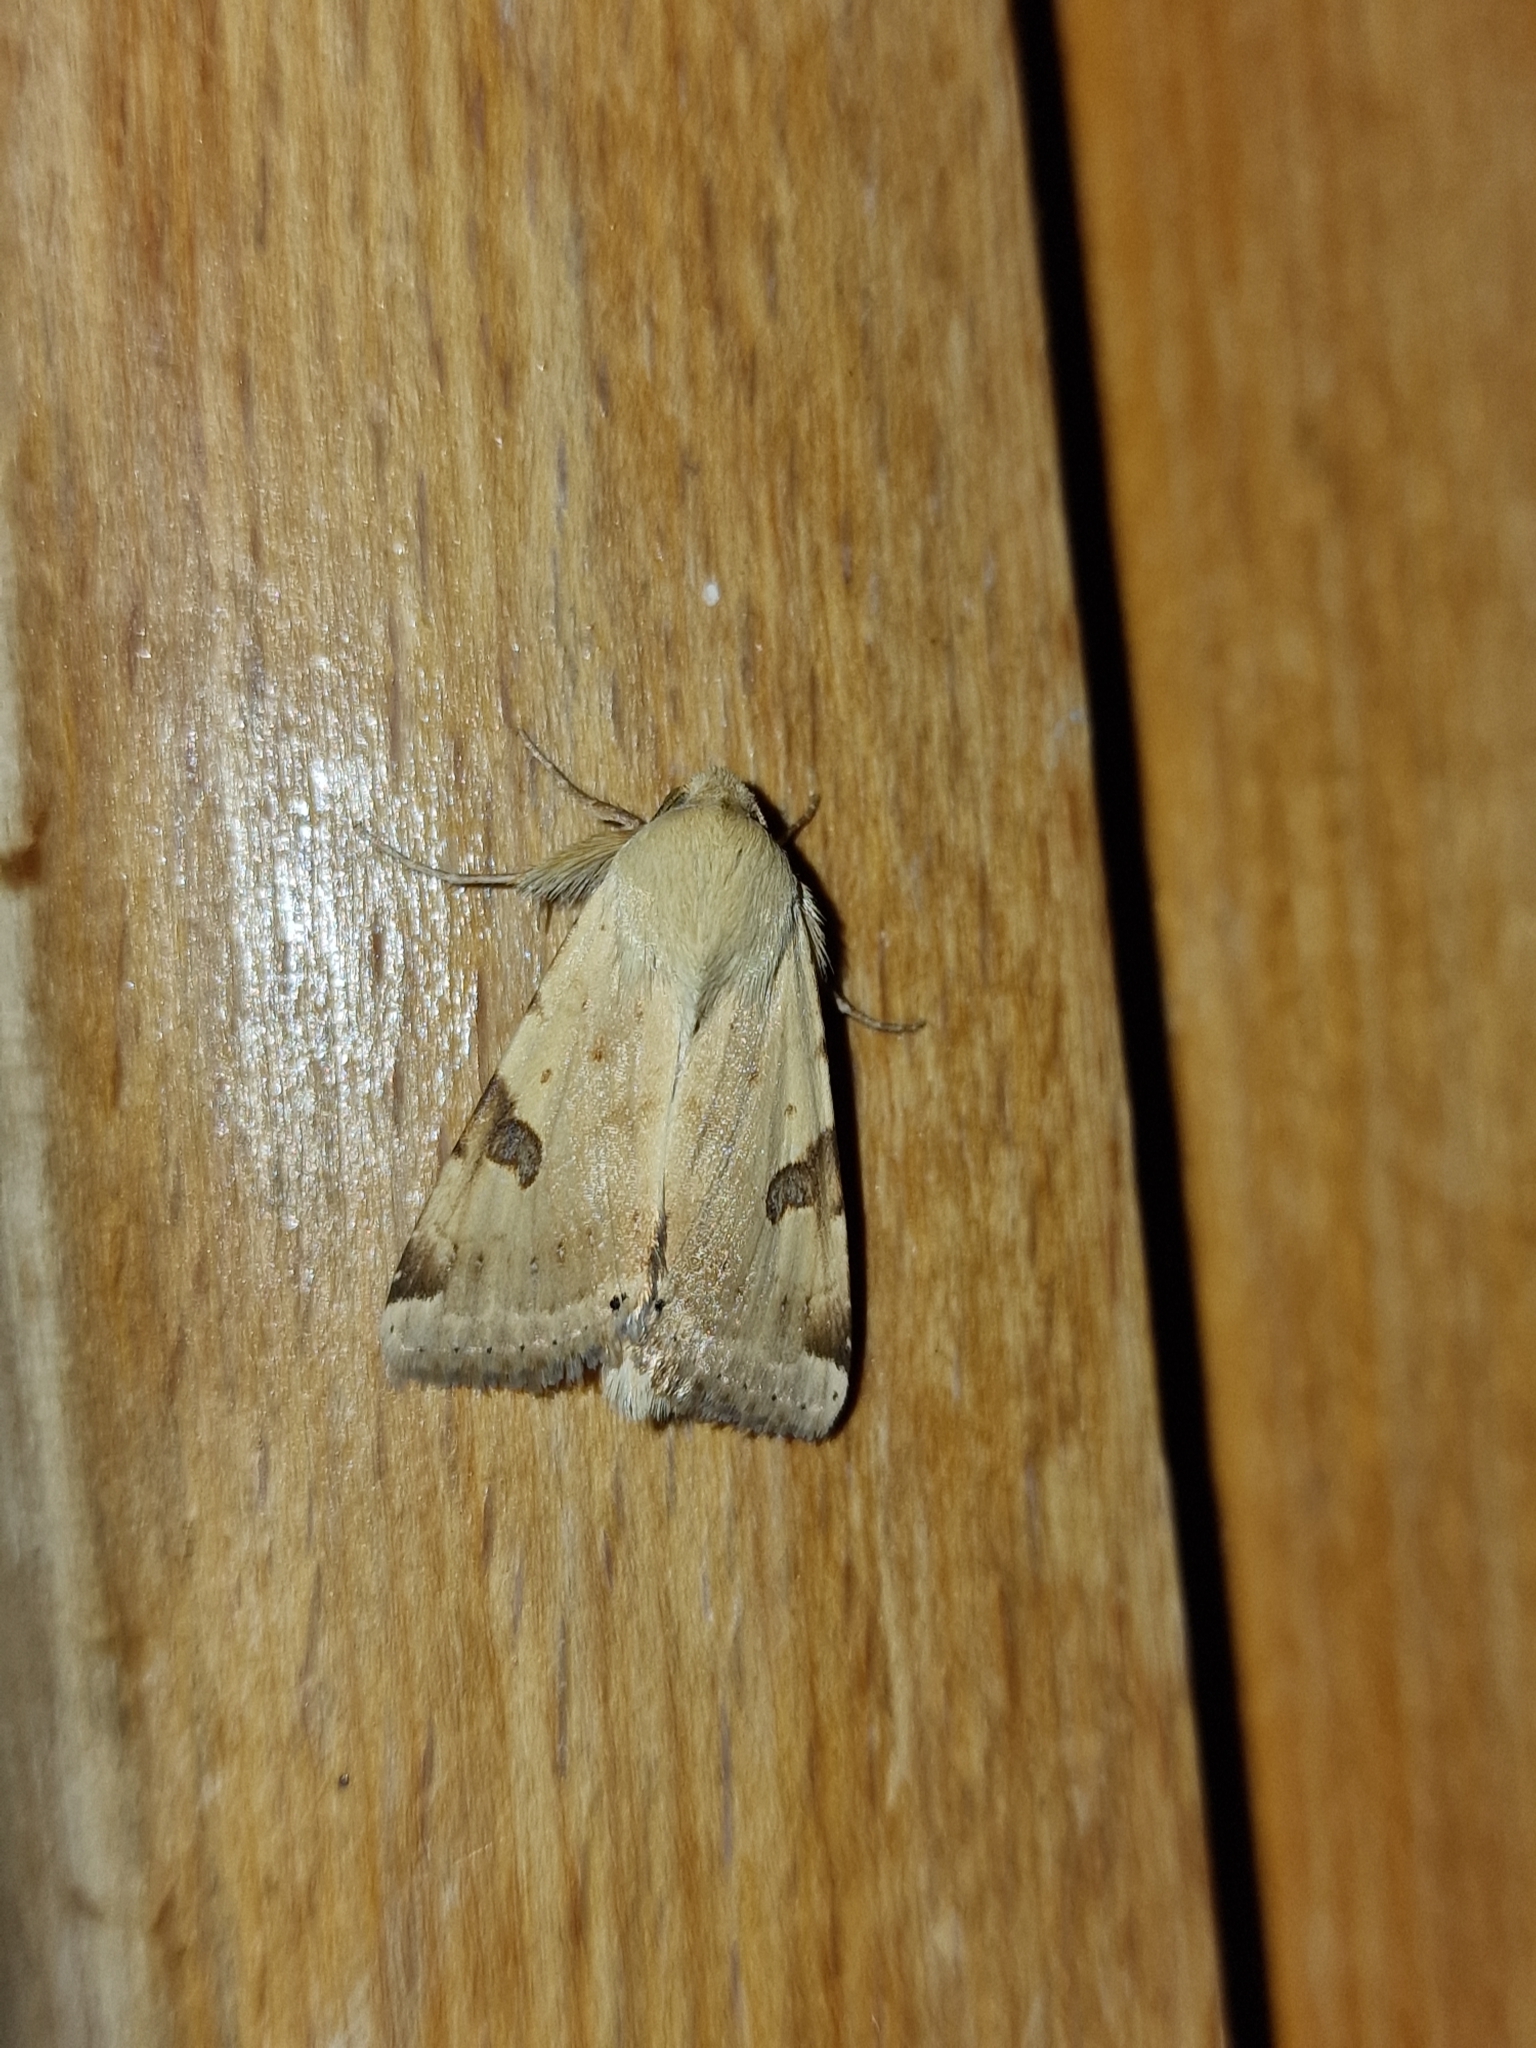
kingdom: Animalia
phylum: Arthropoda
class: Insecta
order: Lepidoptera
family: Noctuidae
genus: Heliothis
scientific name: Heliothis peltigera
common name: Bordered straw
